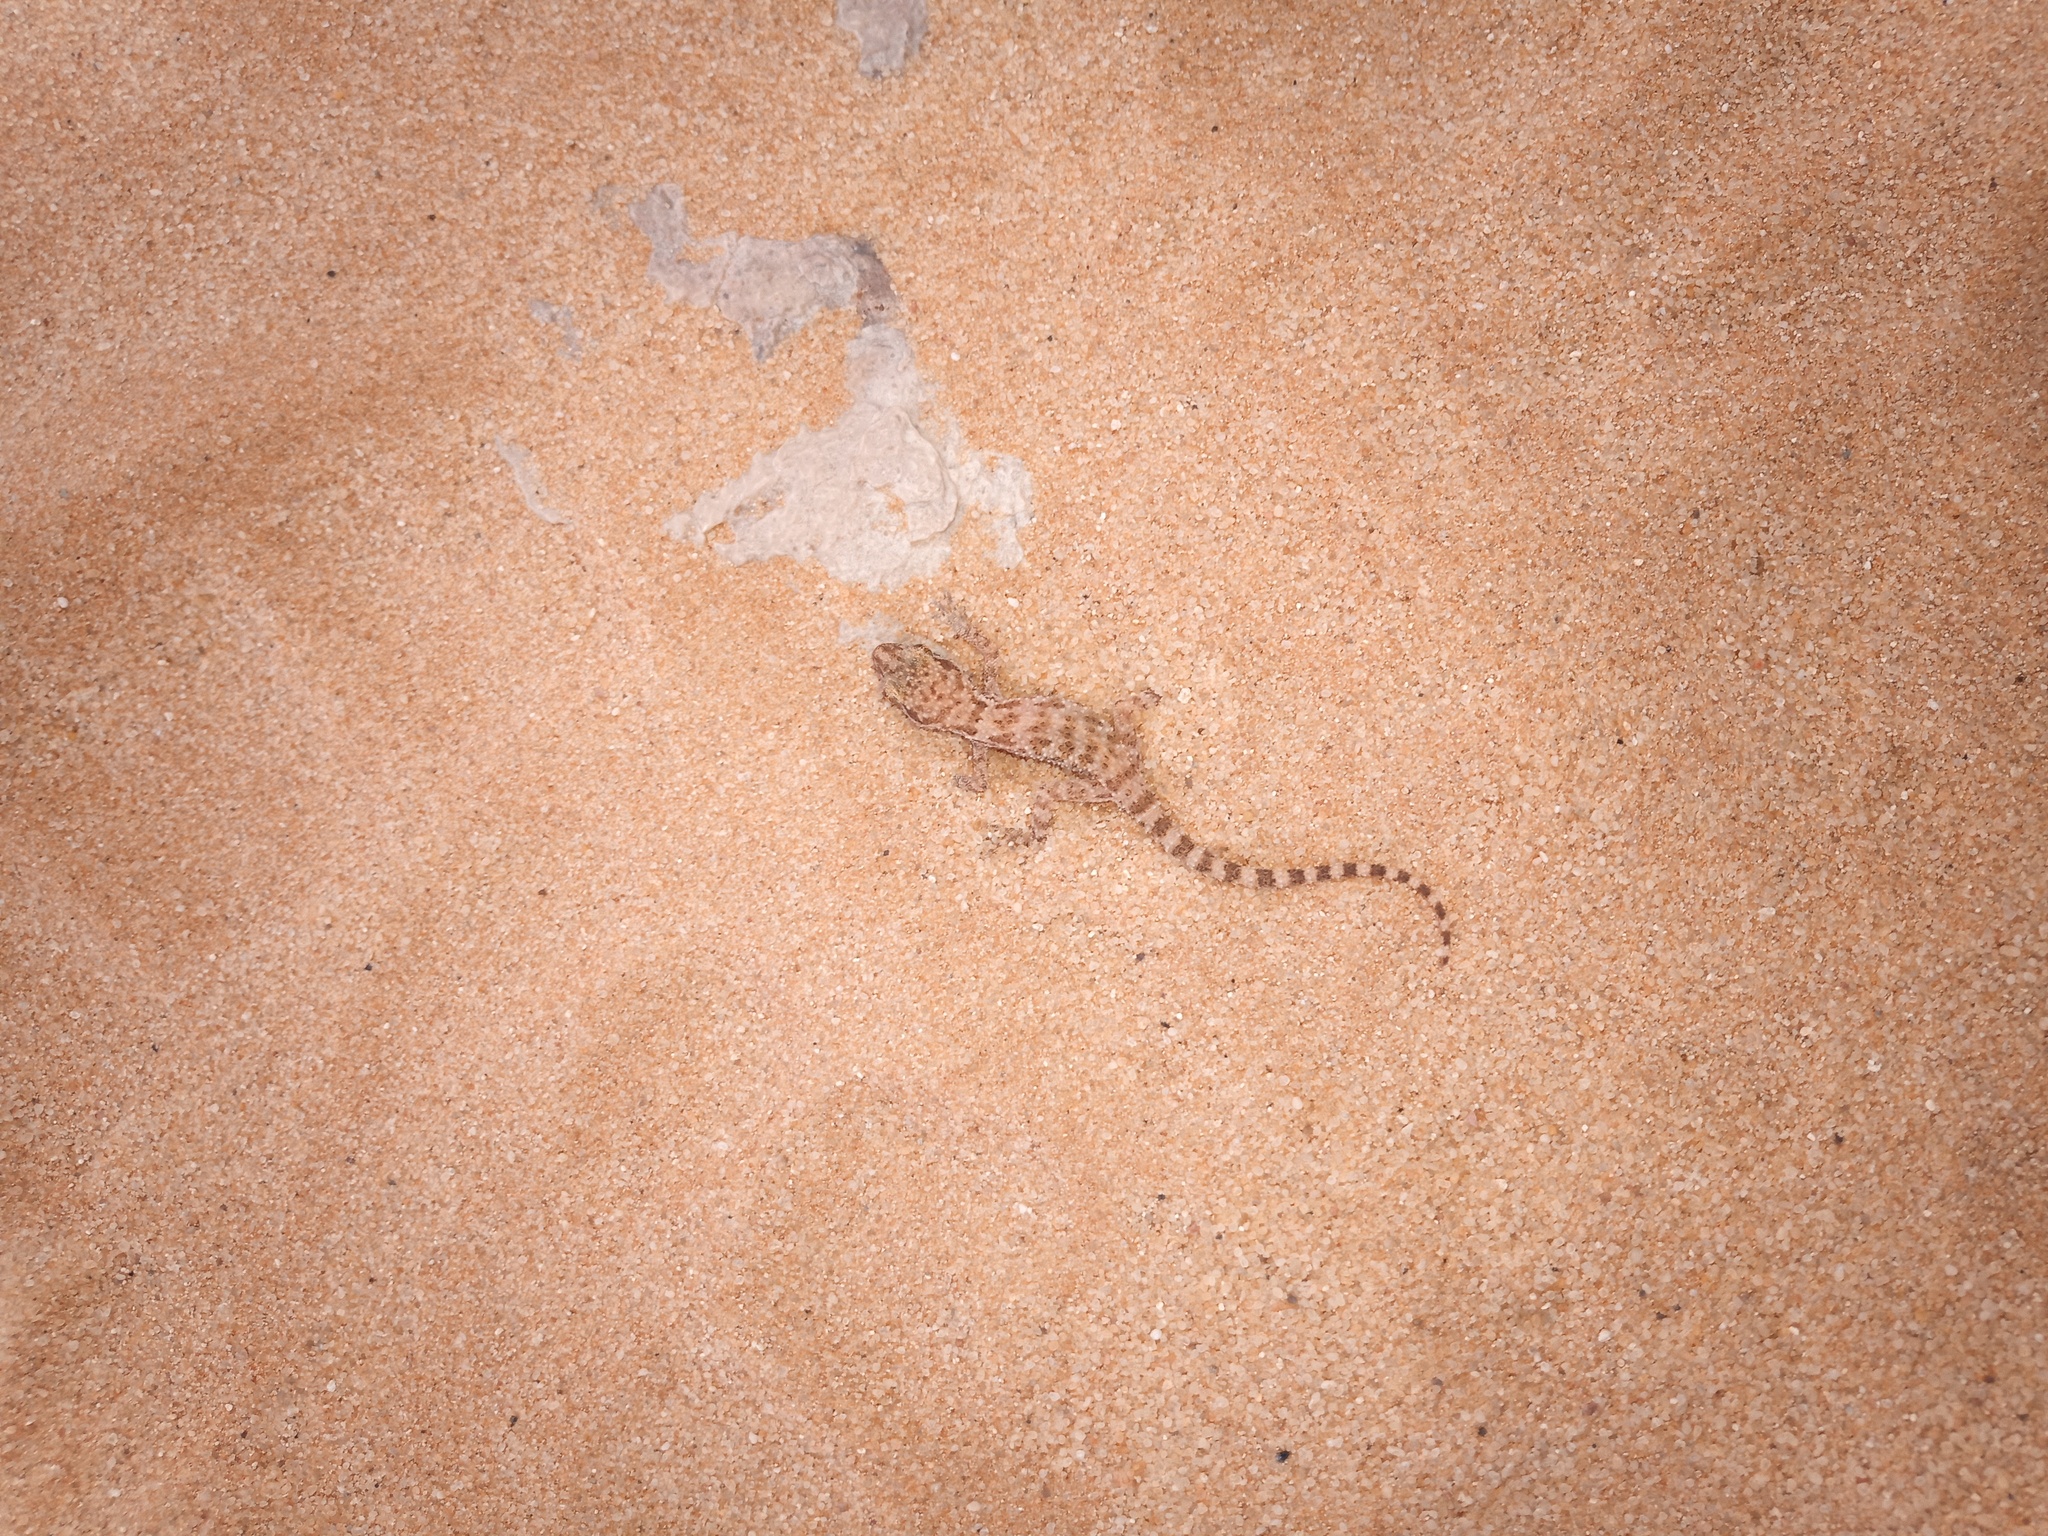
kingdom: Animalia
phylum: Chordata
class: Squamata
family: Gekkonidae
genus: Bunopus
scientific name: Bunopus tuberculatus
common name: Southern tuberculated gecko
